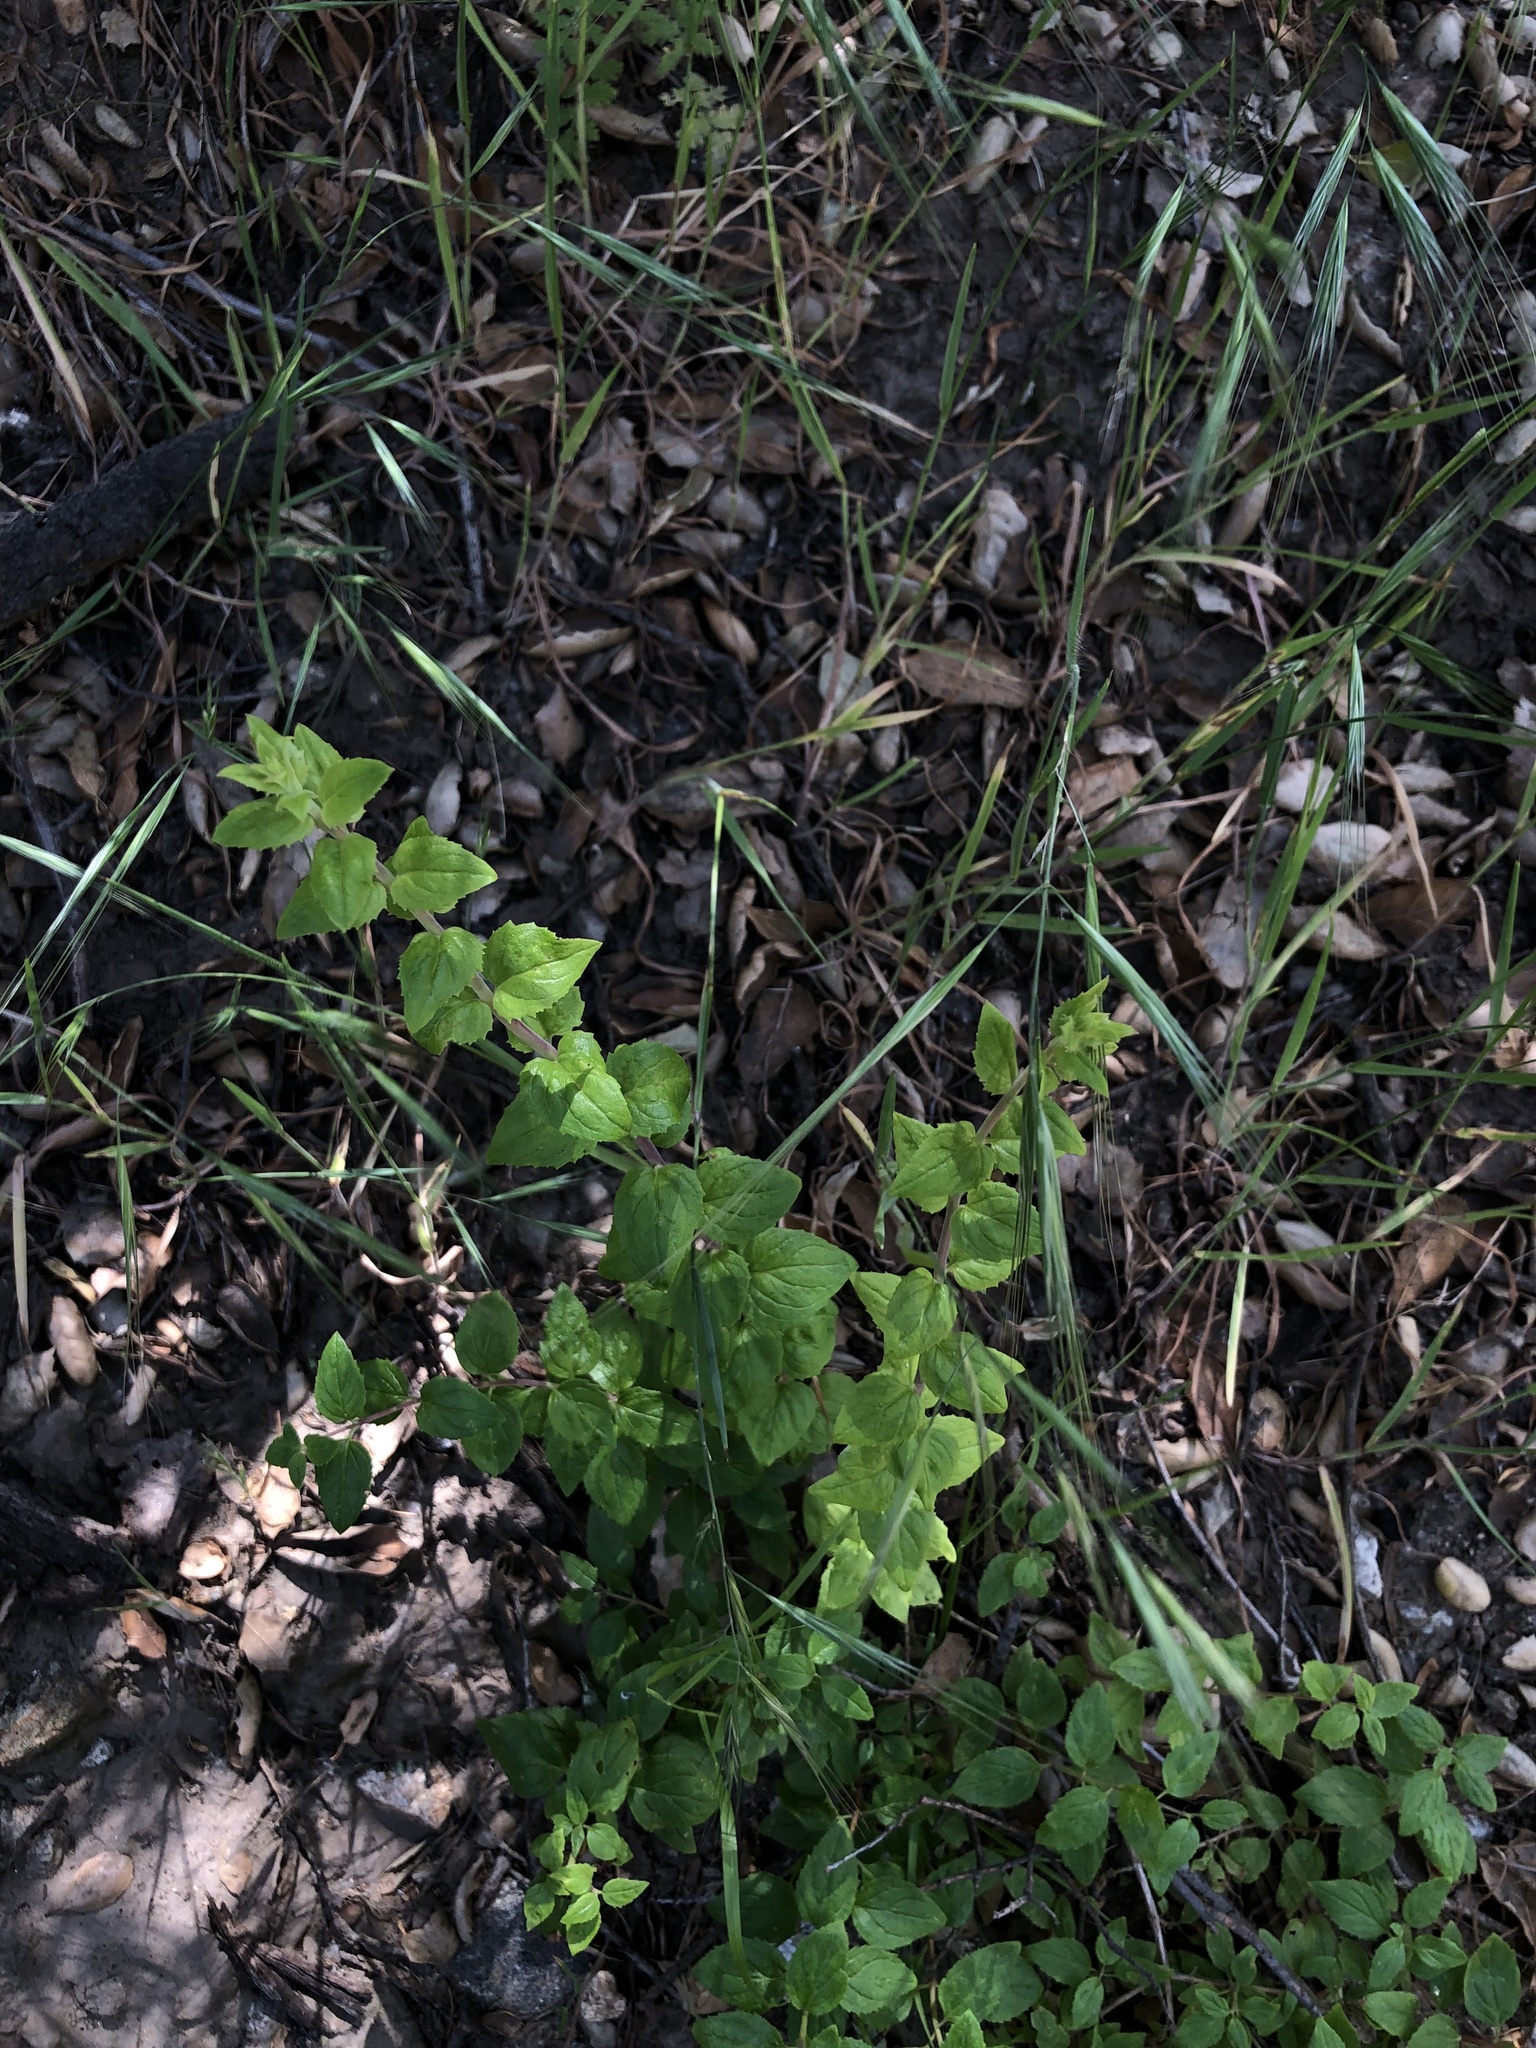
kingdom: Plantae
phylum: Tracheophyta
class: Magnoliopsida
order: Lamiales
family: Plantaginaceae
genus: Keckiella
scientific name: Keckiella cordifolia
